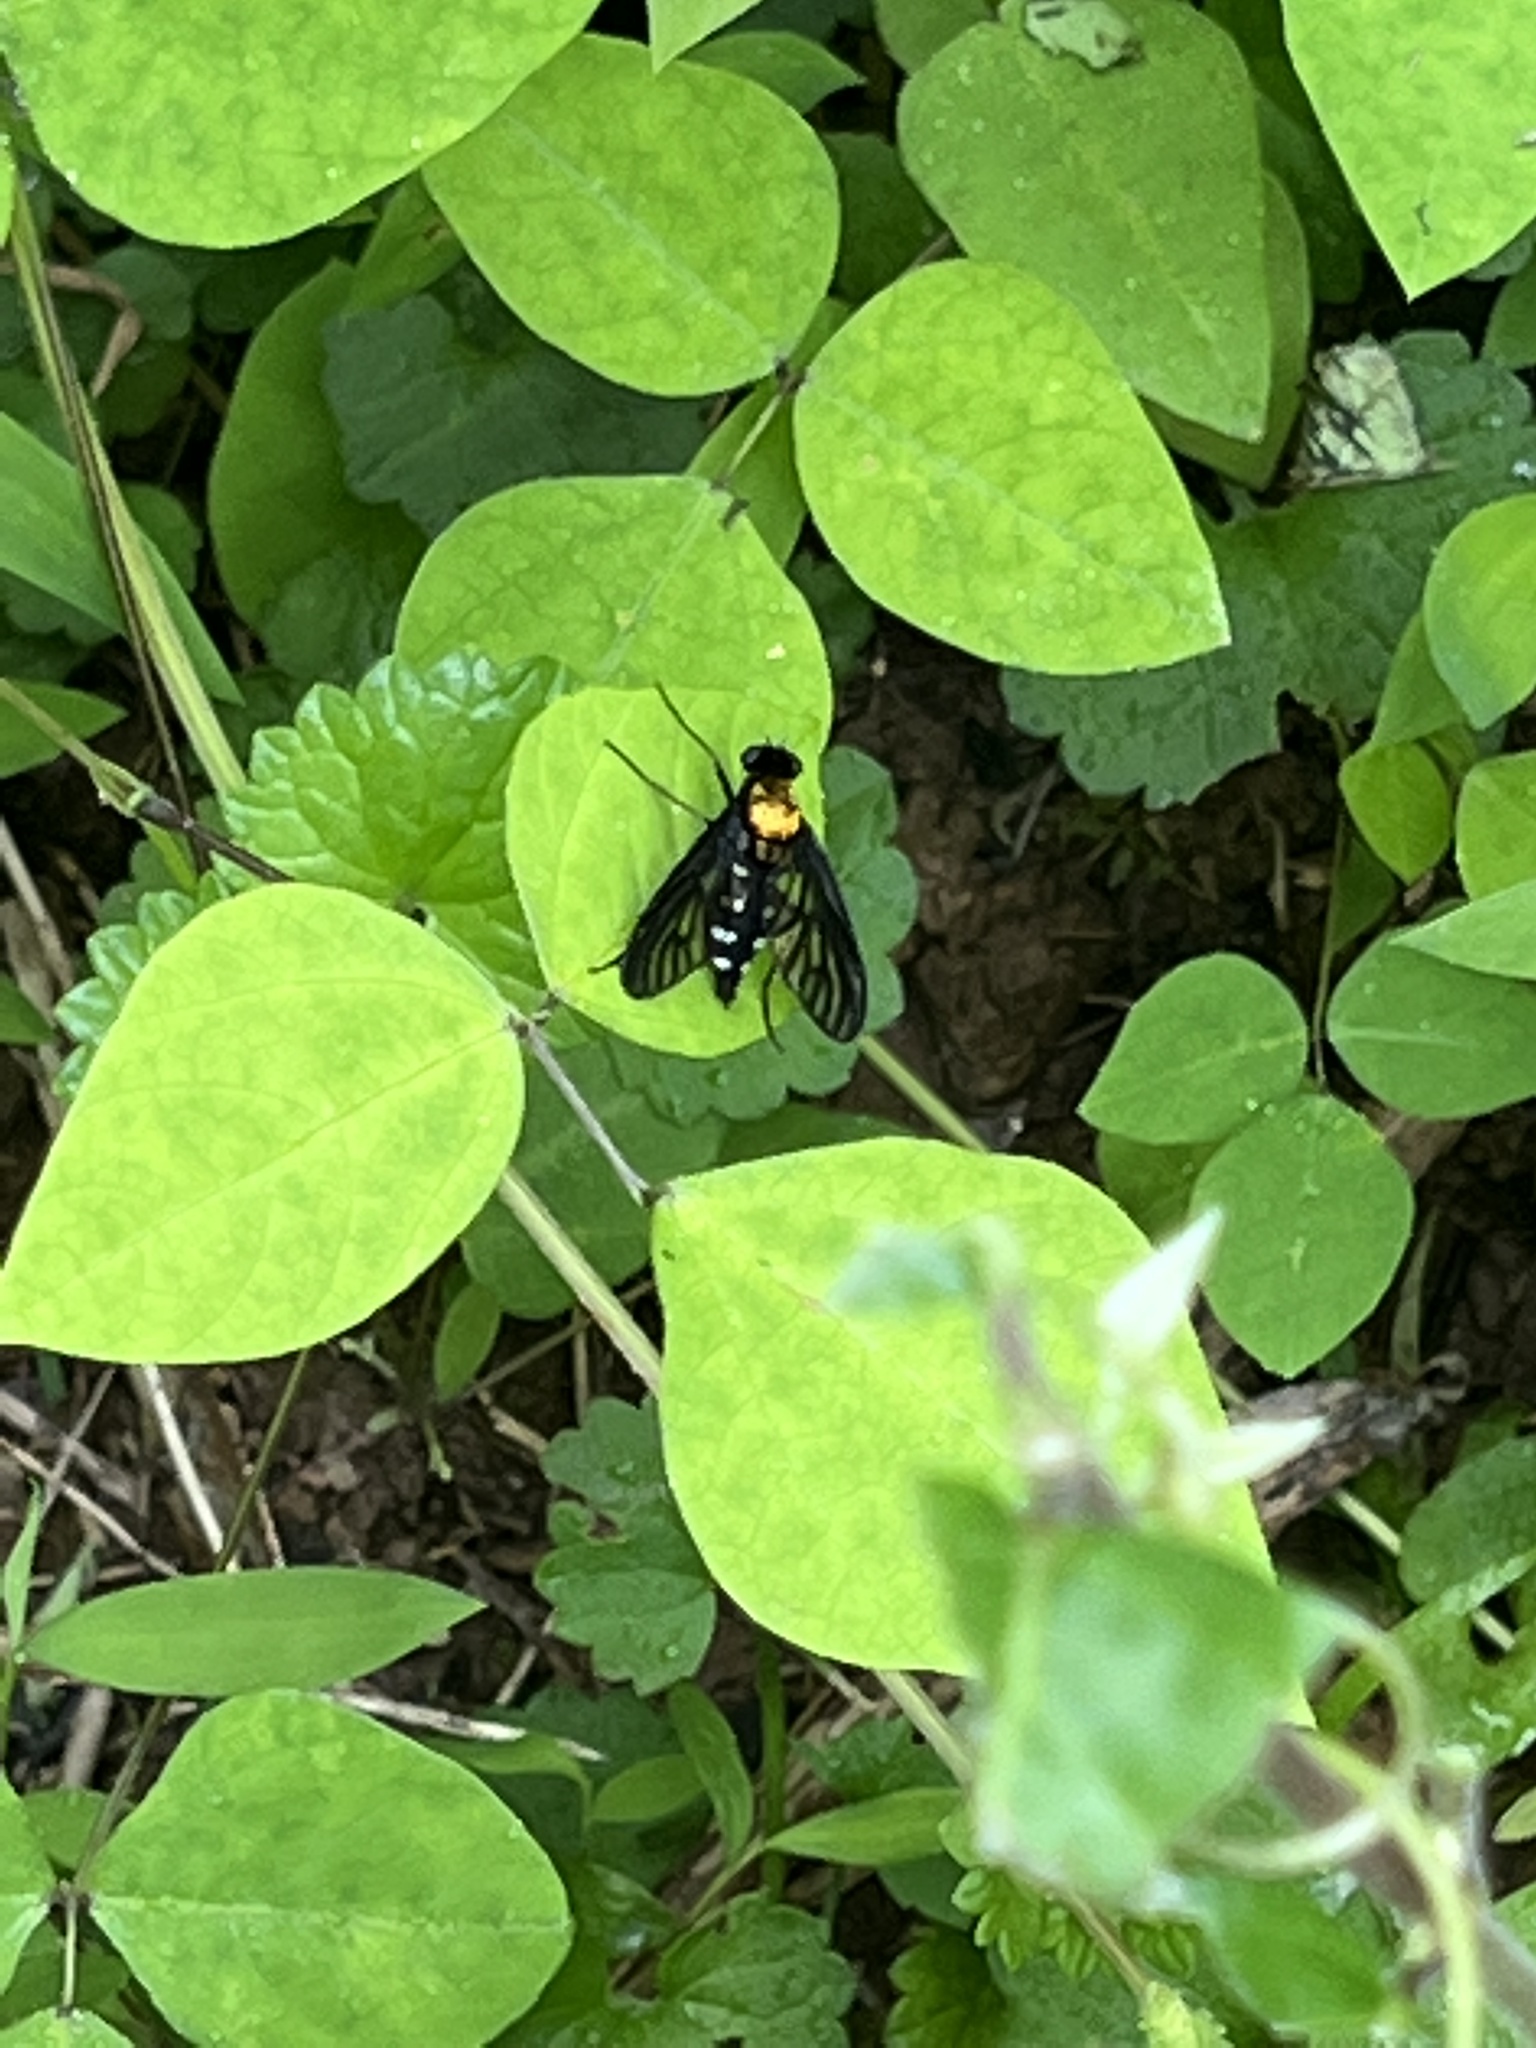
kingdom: Animalia
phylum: Arthropoda
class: Insecta
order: Diptera
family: Rhagionidae
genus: Chrysopilus
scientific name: Chrysopilus thoracicus
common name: Golden-backed snipe fly
